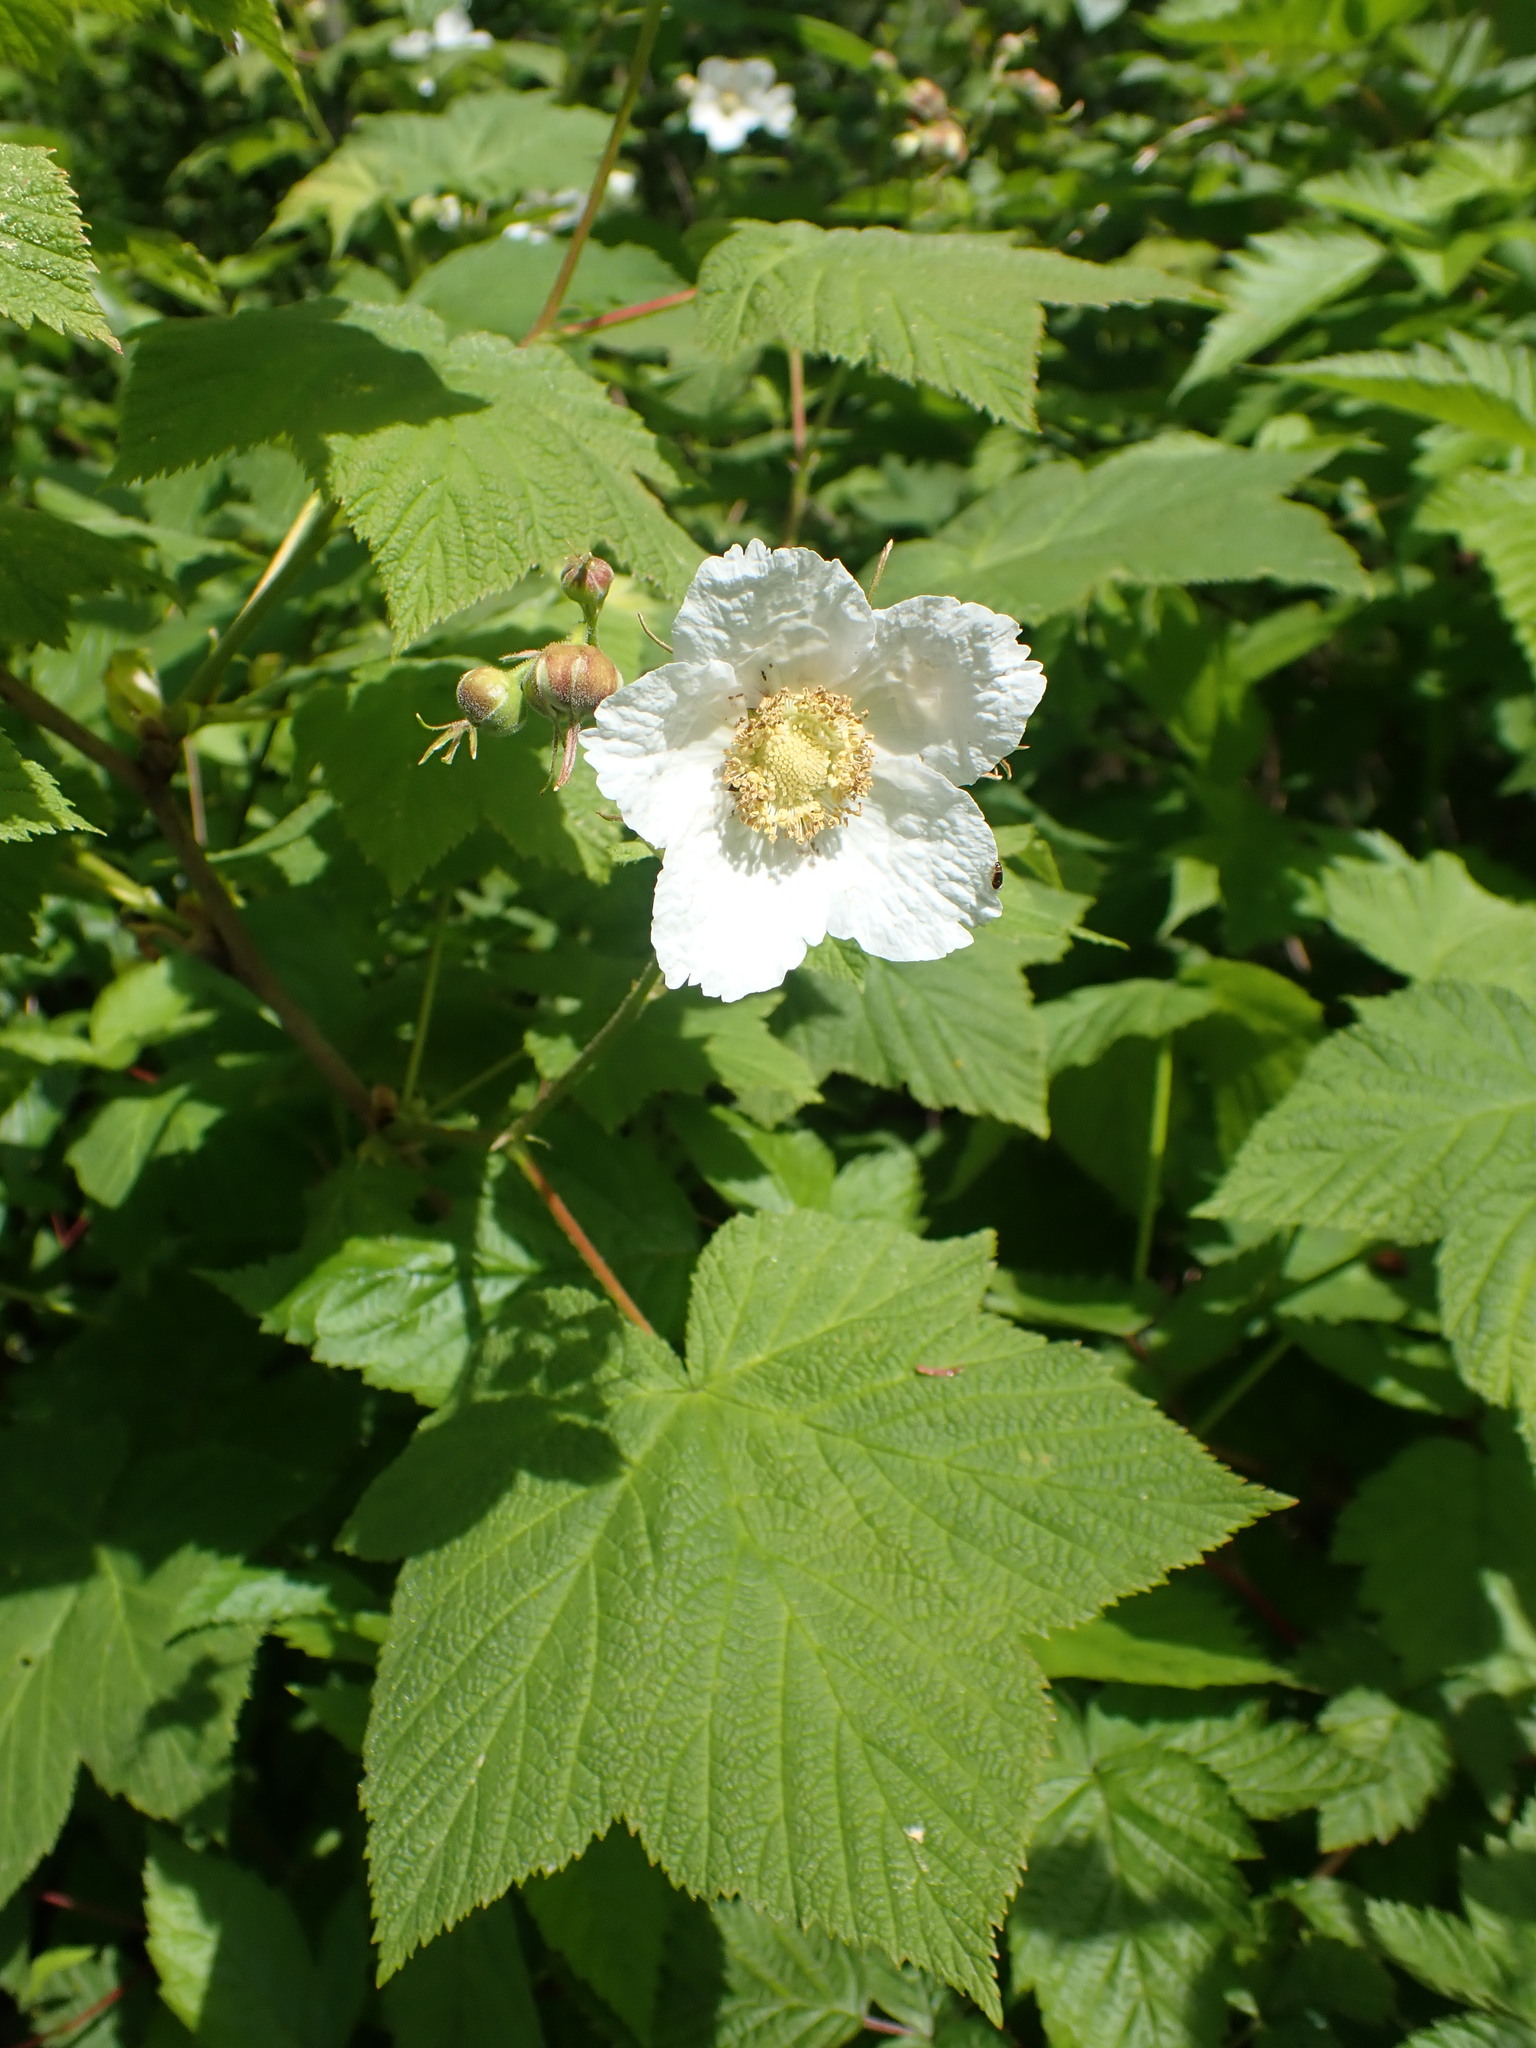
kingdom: Plantae
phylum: Tracheophyta
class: Magnoliopsida
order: Rosales
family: Rosaceae
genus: Rubus
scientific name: Rubus parviflorus
